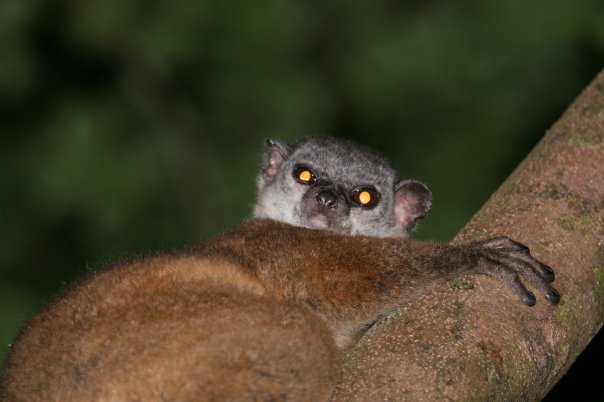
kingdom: Animalia
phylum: Chordata
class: Mammalia
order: Primates
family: Lepilemuridae
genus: Lepilemur
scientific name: Lepilemur scottorum
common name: Masoala sportive lemur
